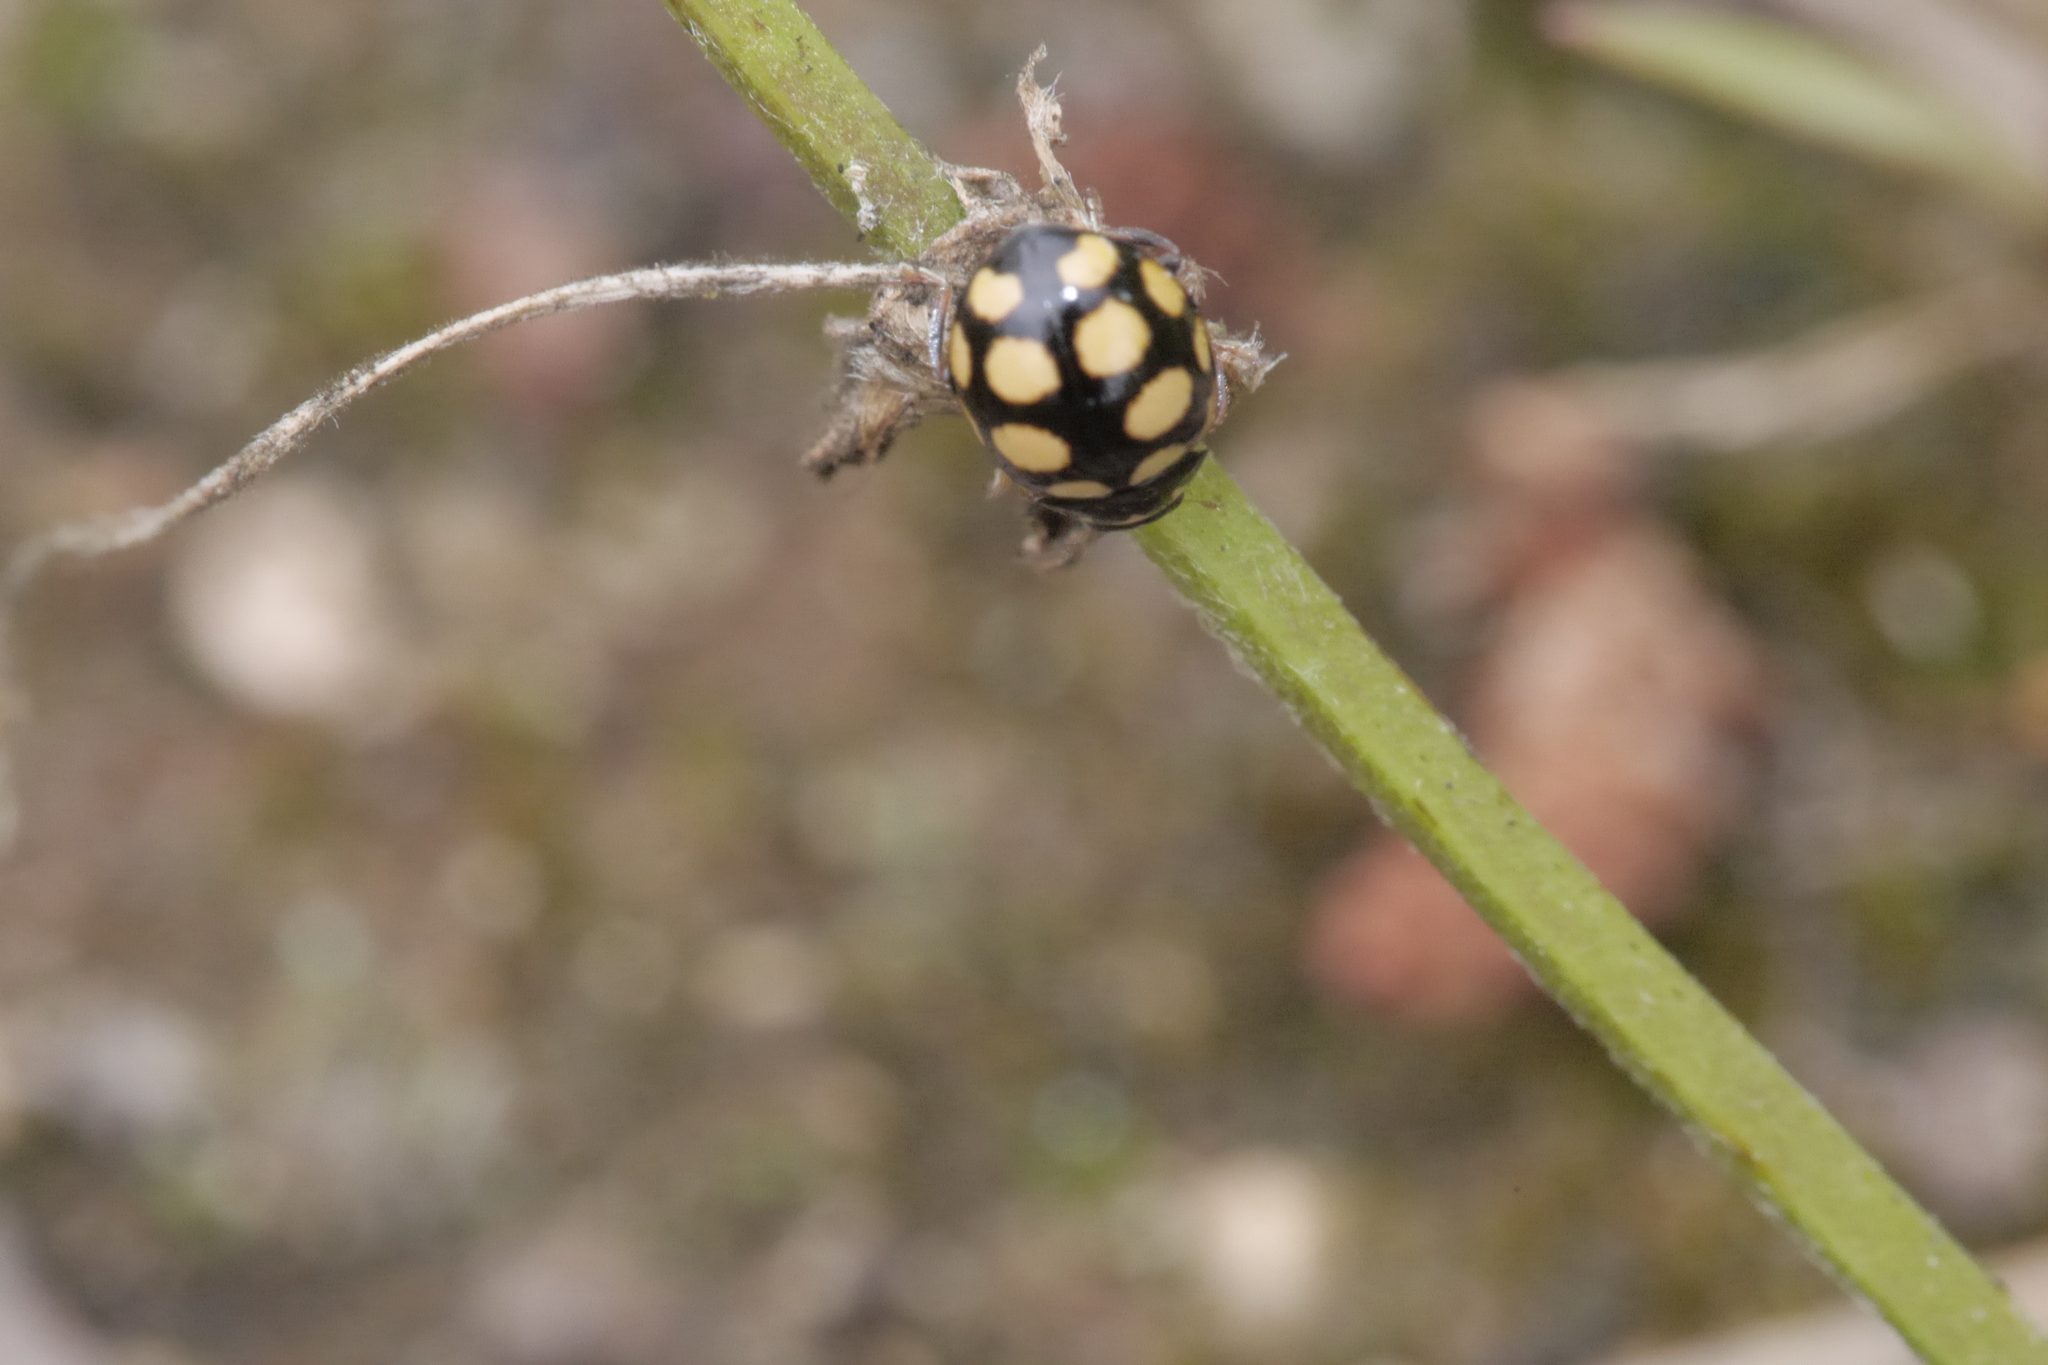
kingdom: Animalia
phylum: Arthropoda
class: Insecta
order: Coleoptera
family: Coccinellidae
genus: Coccinula
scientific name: Coccinula quatuordecimpustulata
